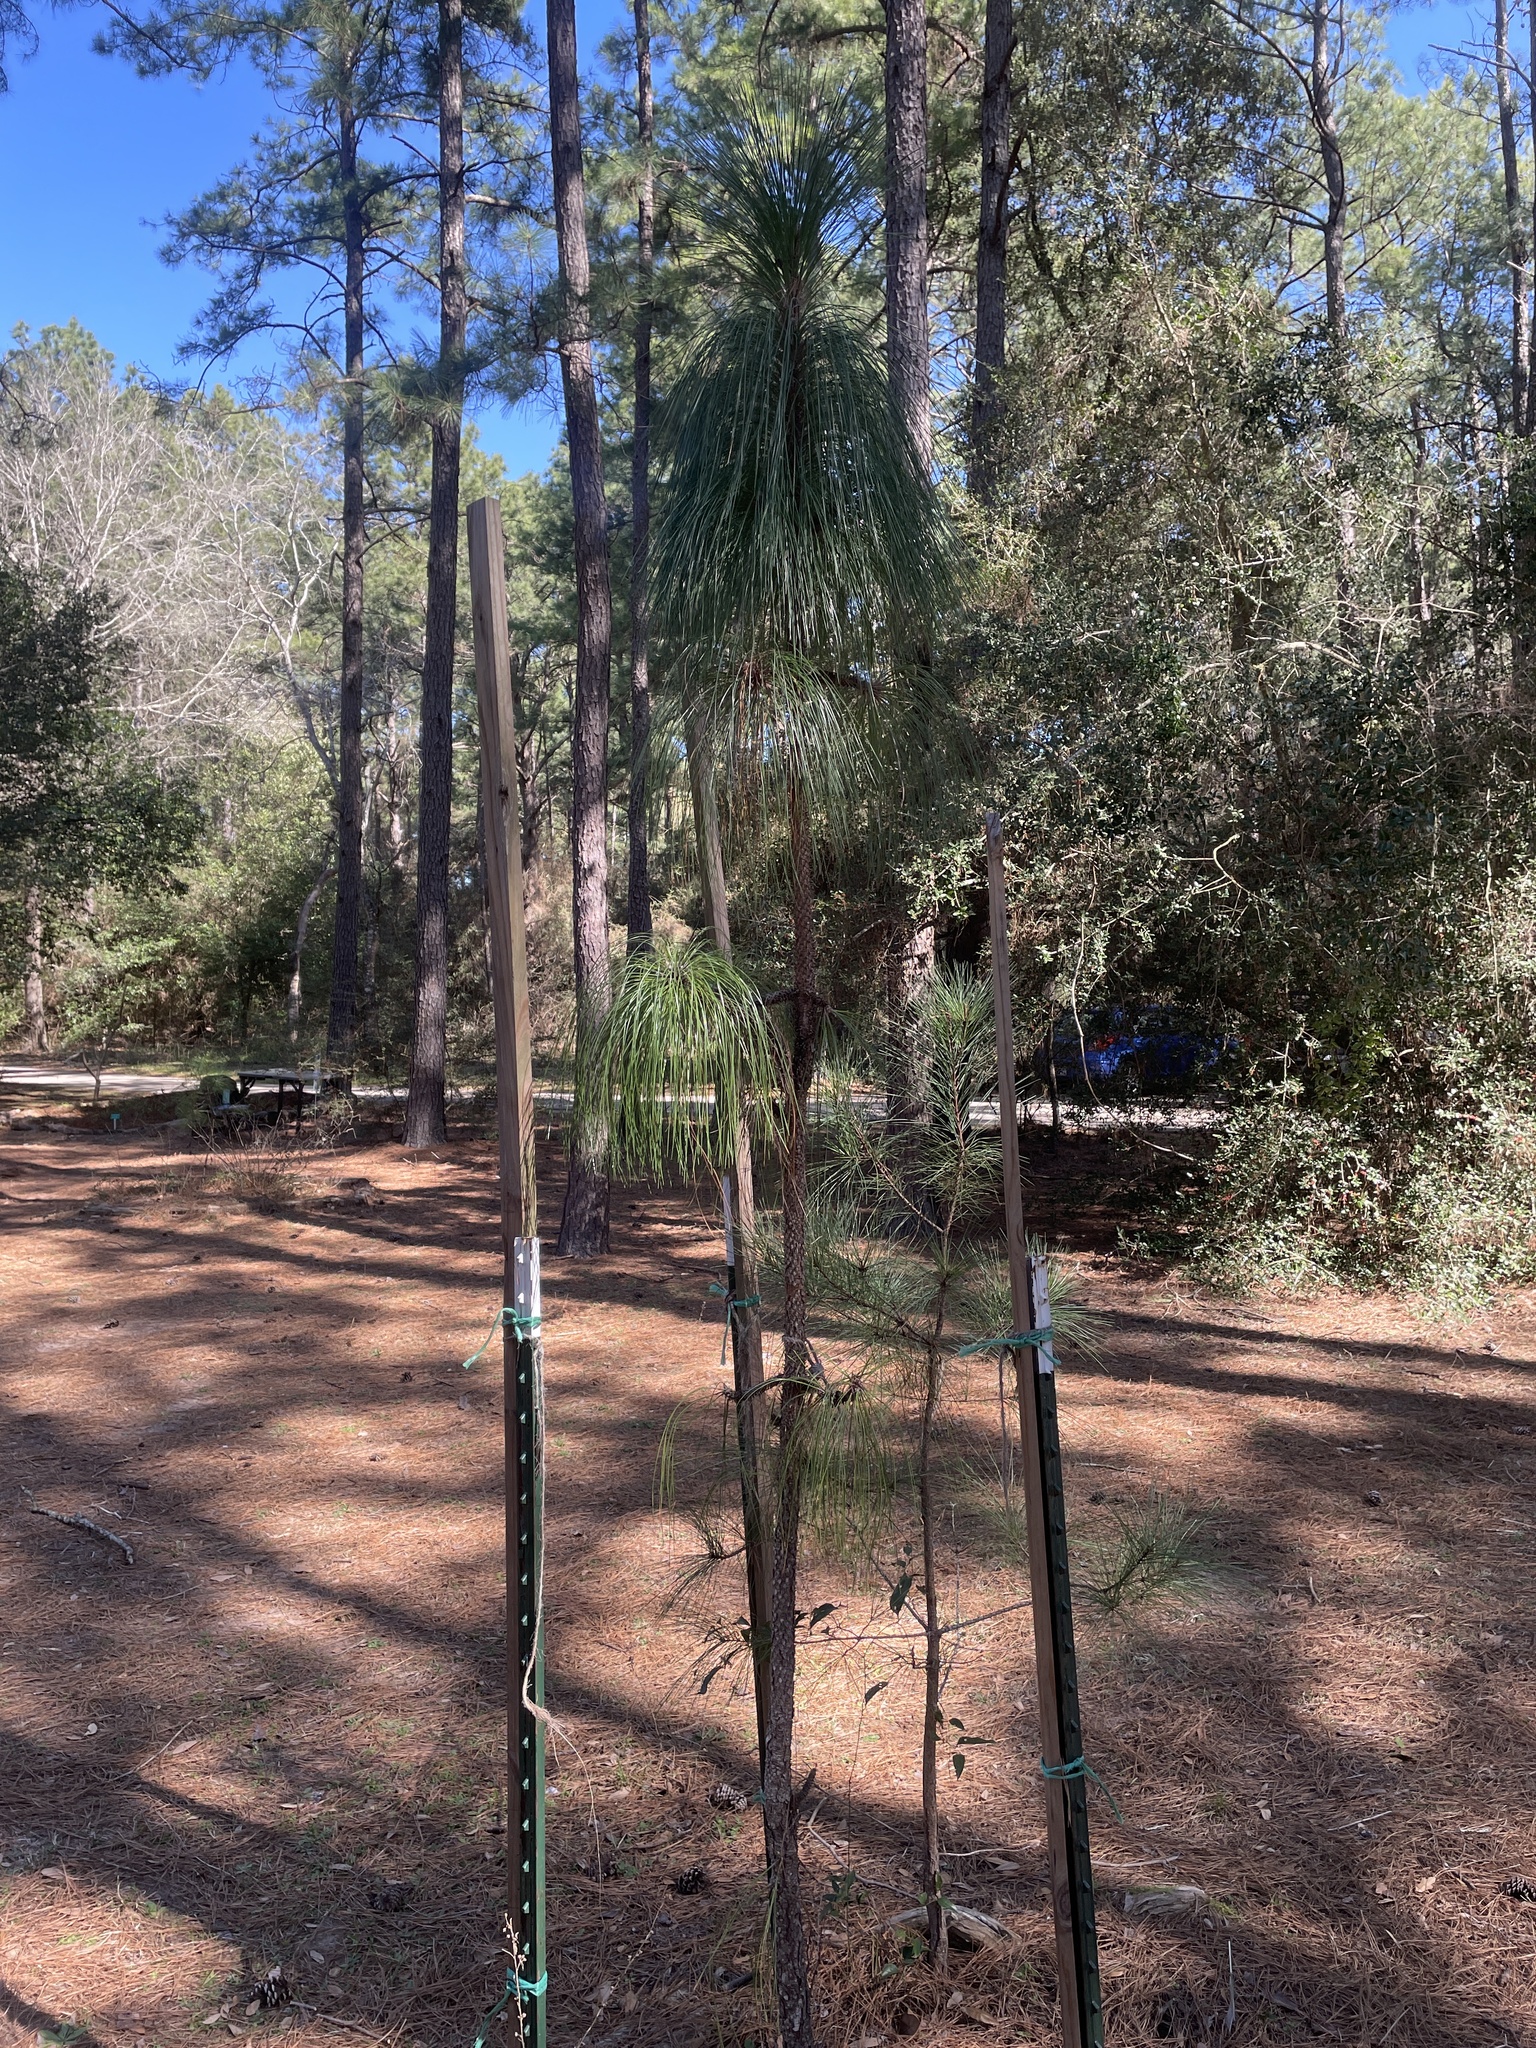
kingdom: Plantae
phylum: Tracheophyta
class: Pinopsida
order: Pinales
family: Pinaceae
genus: Pinus
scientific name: Pinus palustris
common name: Longleaf pine
